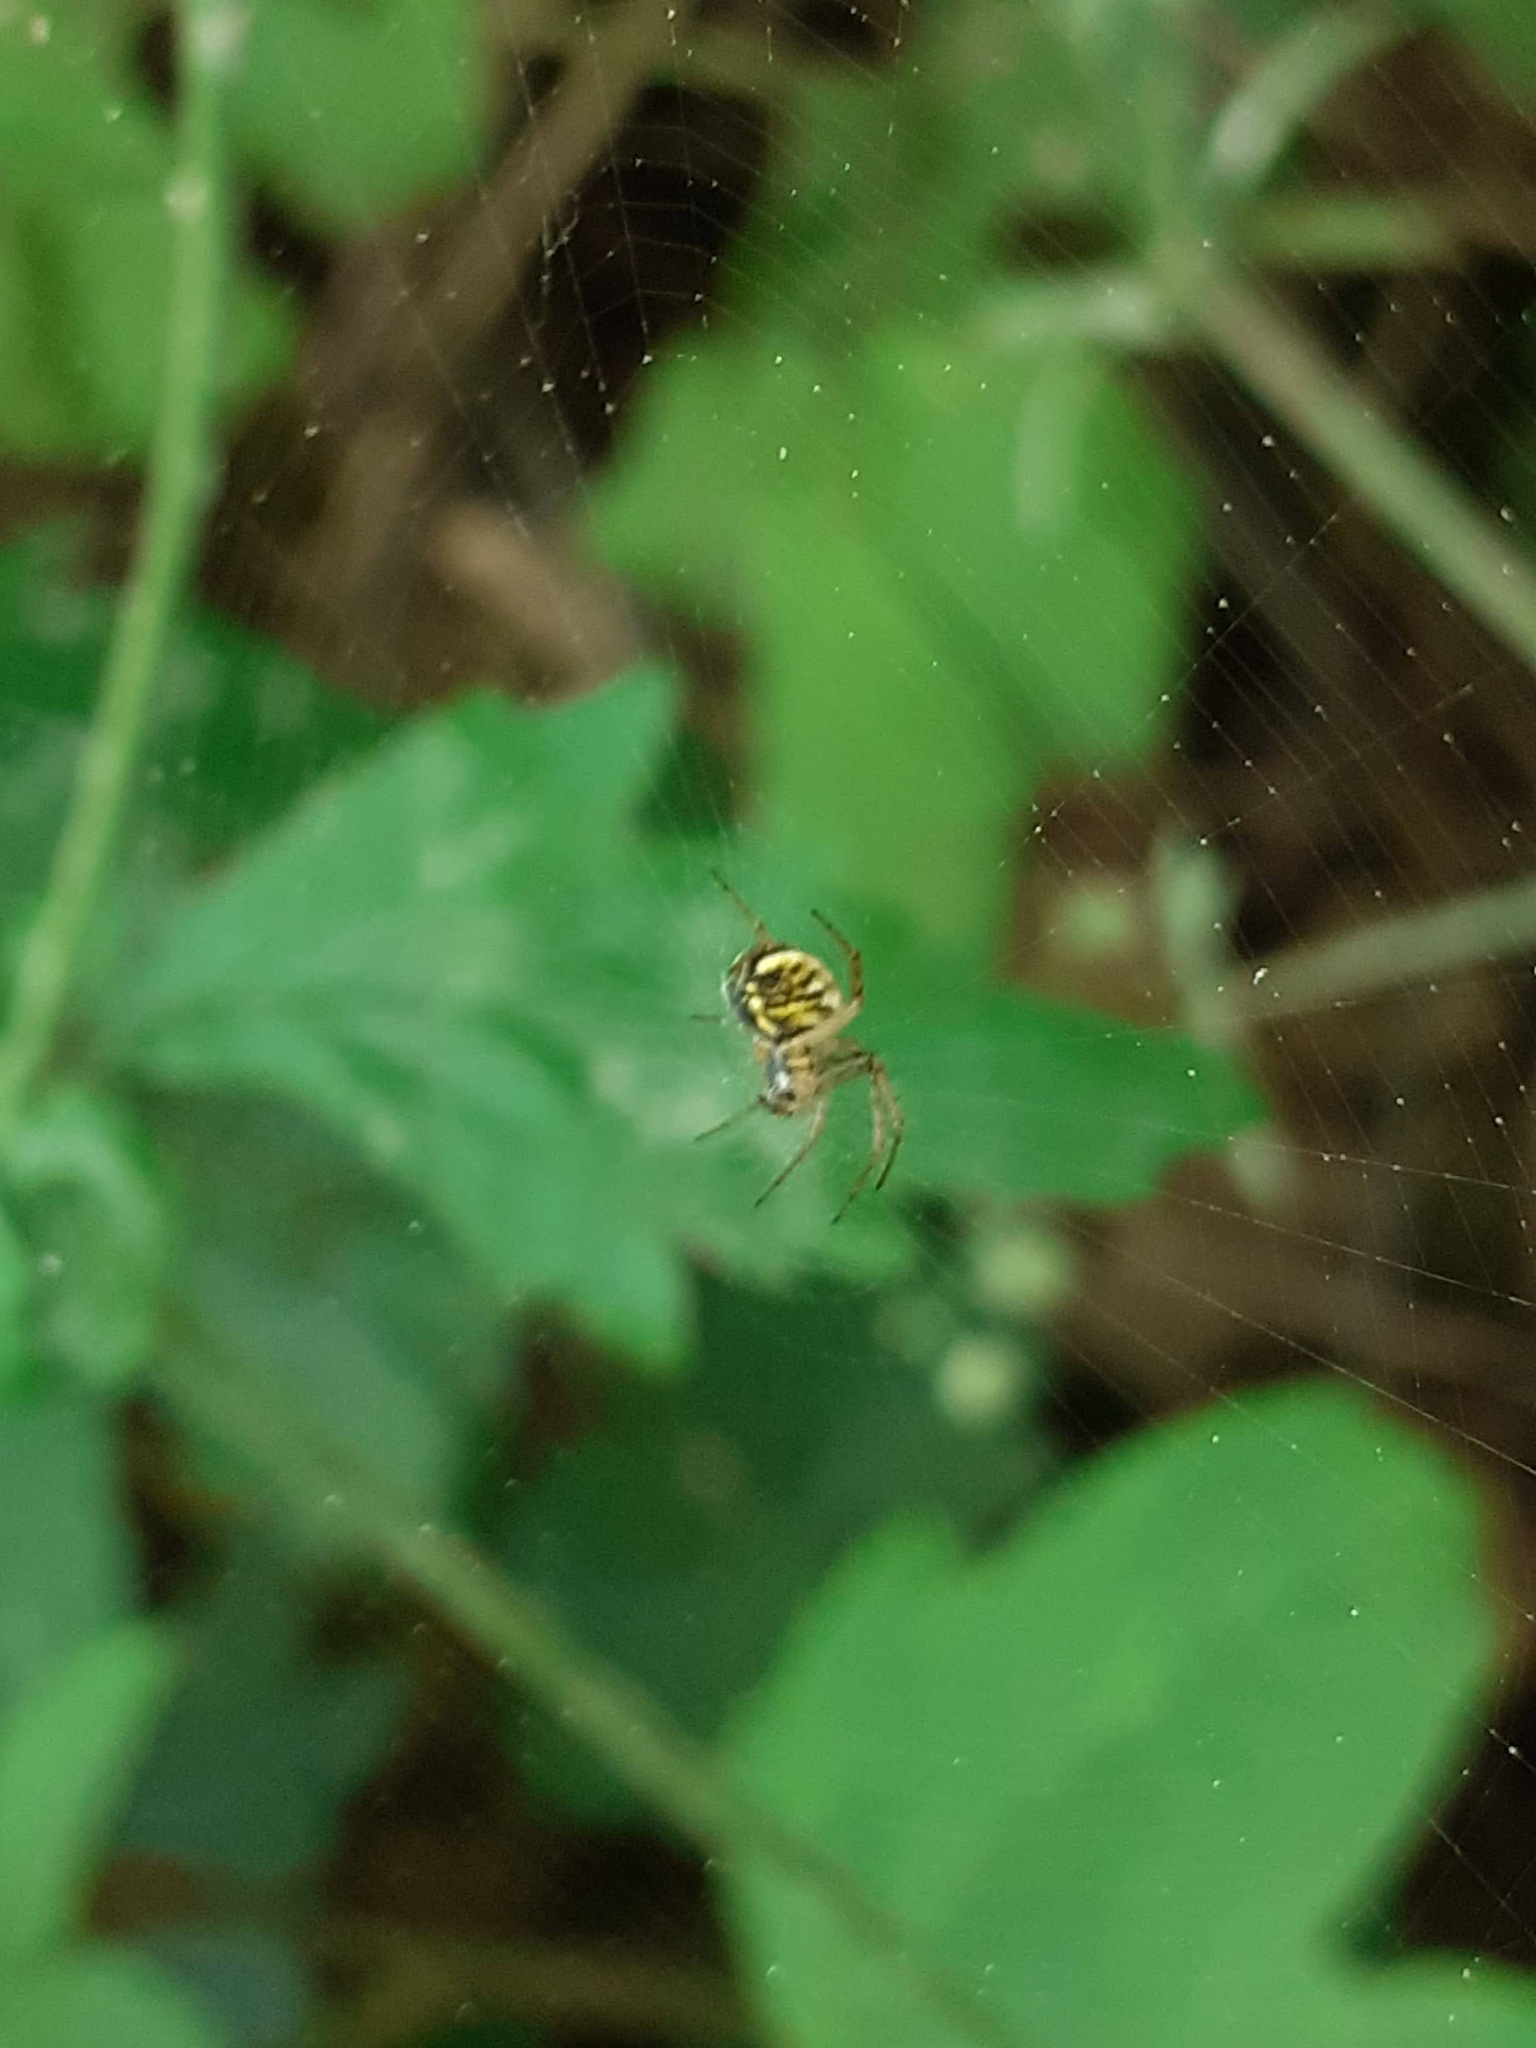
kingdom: Animalia
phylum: Arthropoda
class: Arachnida
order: Araneae
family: Araneidae
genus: Mangora
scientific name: Mangora acalypha
